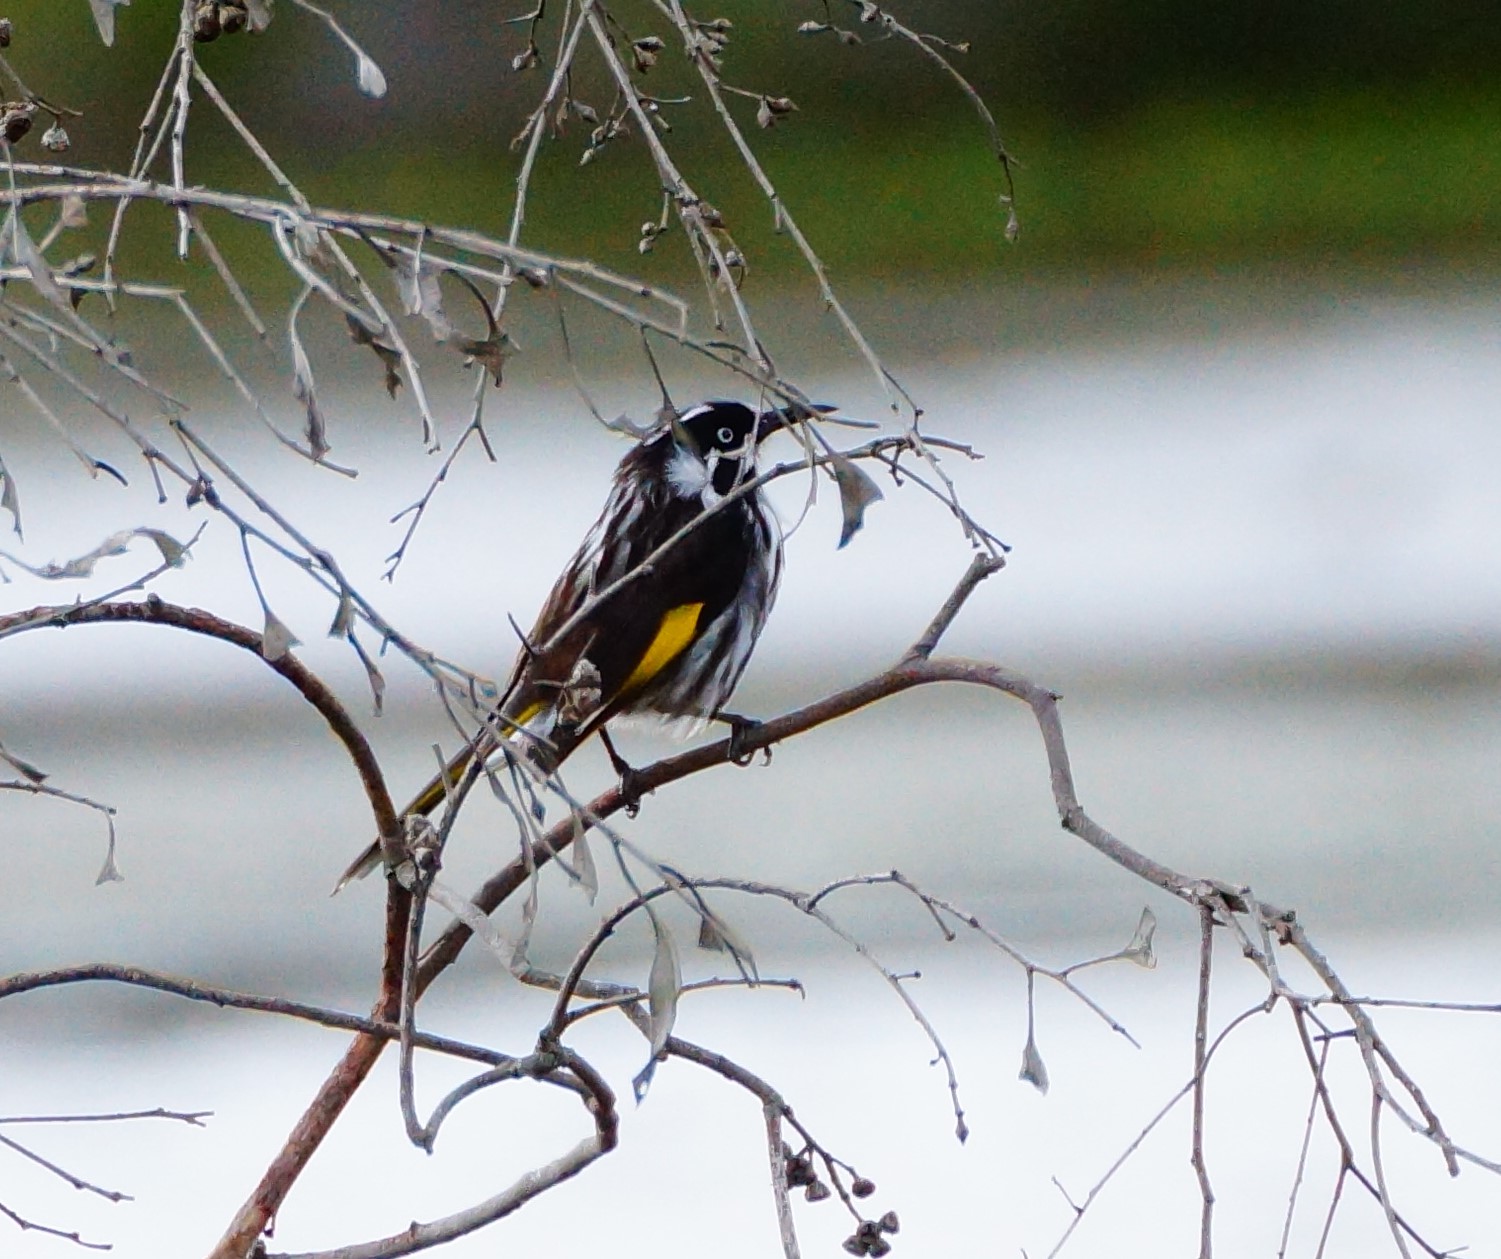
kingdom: Animalia
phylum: Chordata
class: Aves
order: Passeriformes
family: Meliphagidae
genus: Phylidonyris
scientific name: Phylidonyris novaehollandiae
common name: New holland honeyeater
